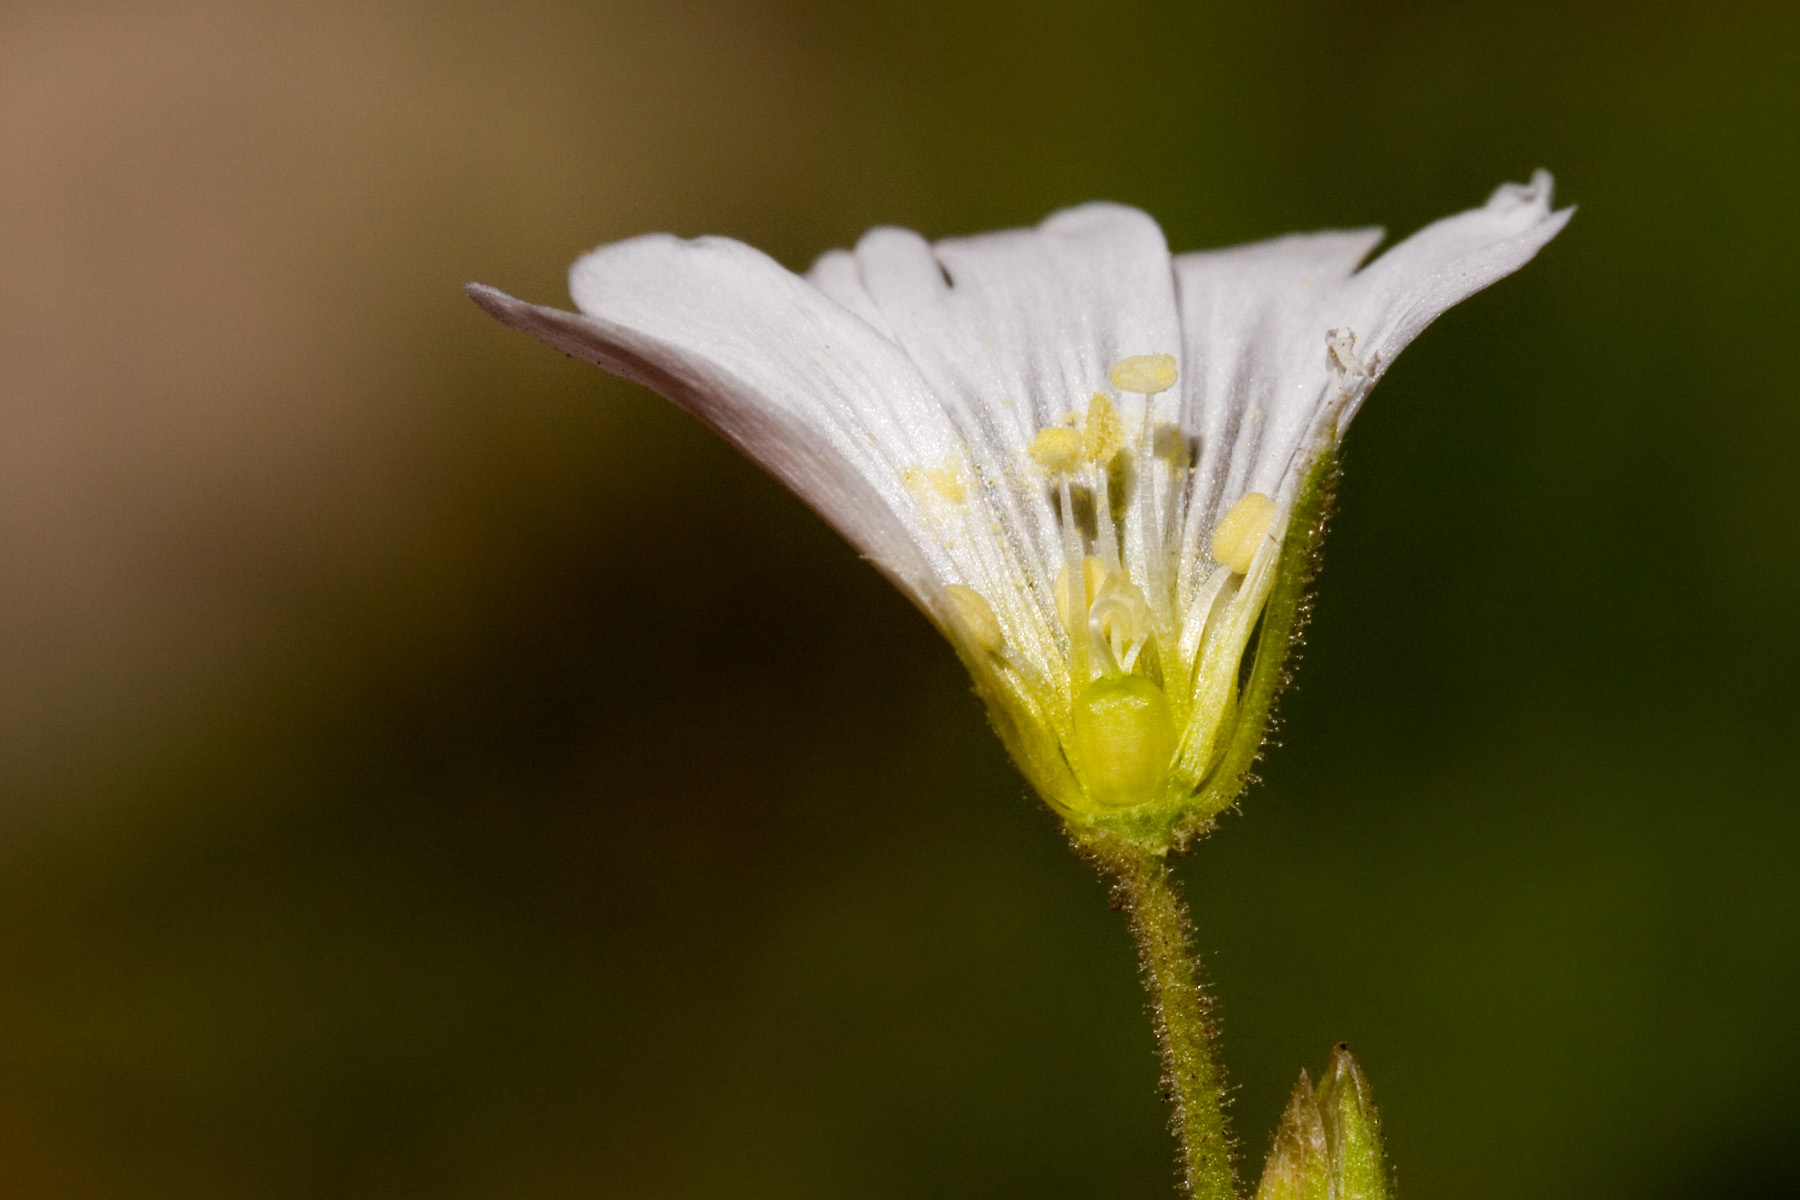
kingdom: Plantae
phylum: Tracheophyta
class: Magnoliopsida
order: Caryophyllales
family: Caryophyllaceae
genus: Cerastium
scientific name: Cerastium arvense
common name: Field mouse-ear
